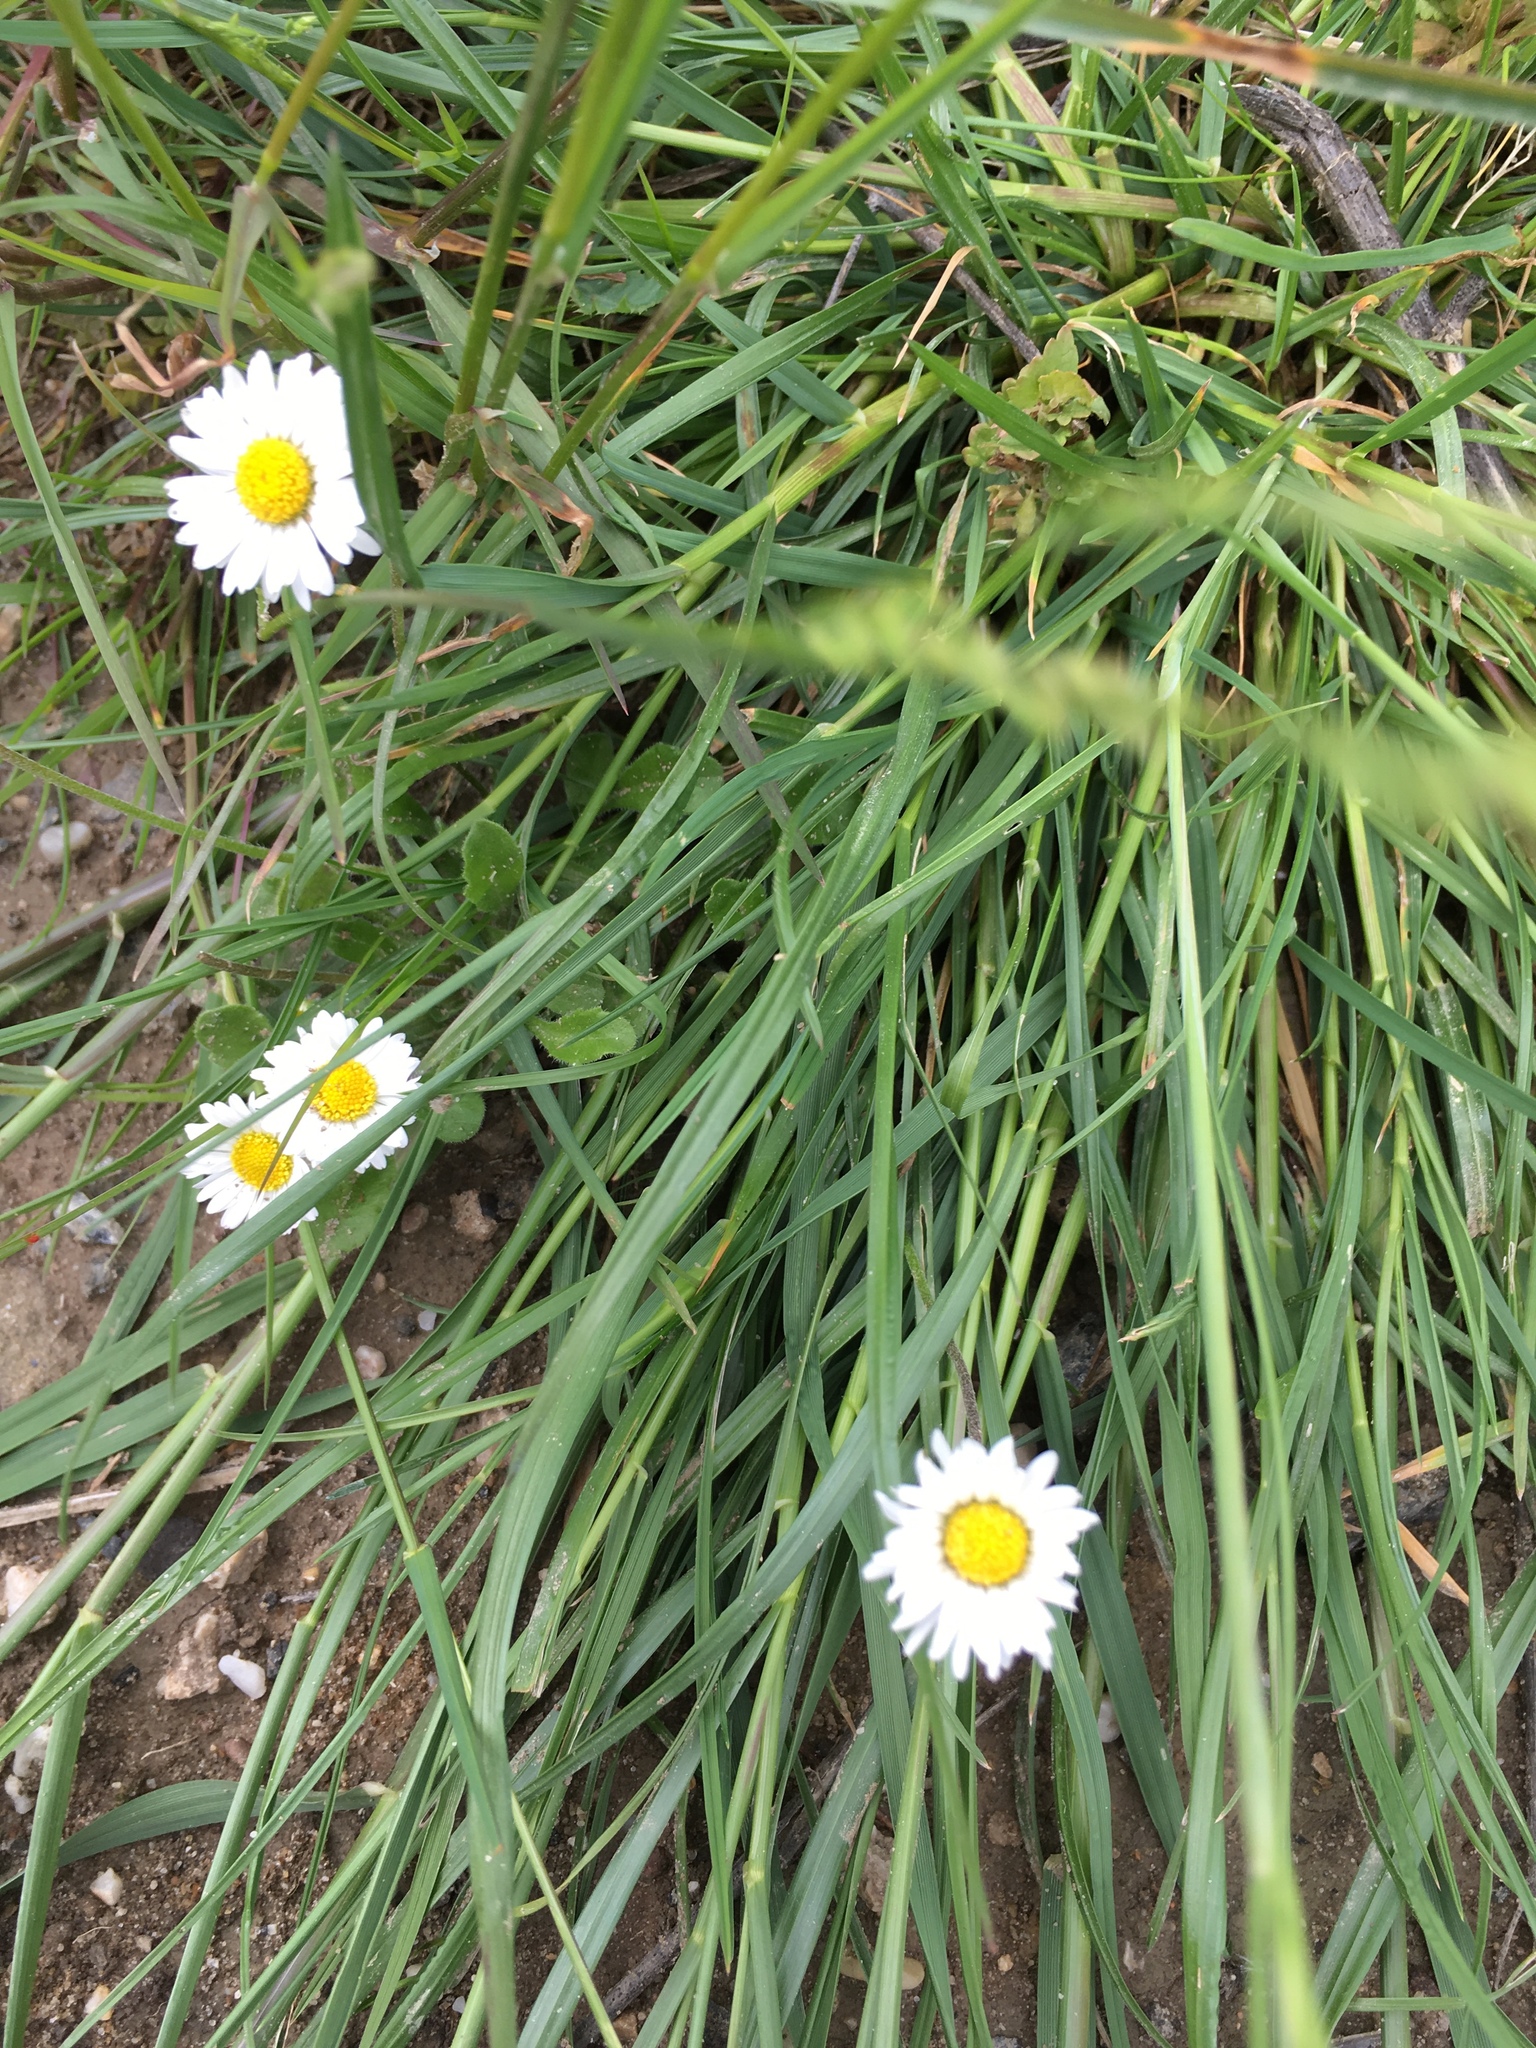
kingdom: Plantae
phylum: Tracheophyta
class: Magnoliopsida
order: Asterales
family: Asteraceae
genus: Bellis
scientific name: Bellis perennis
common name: Lawndaisy
